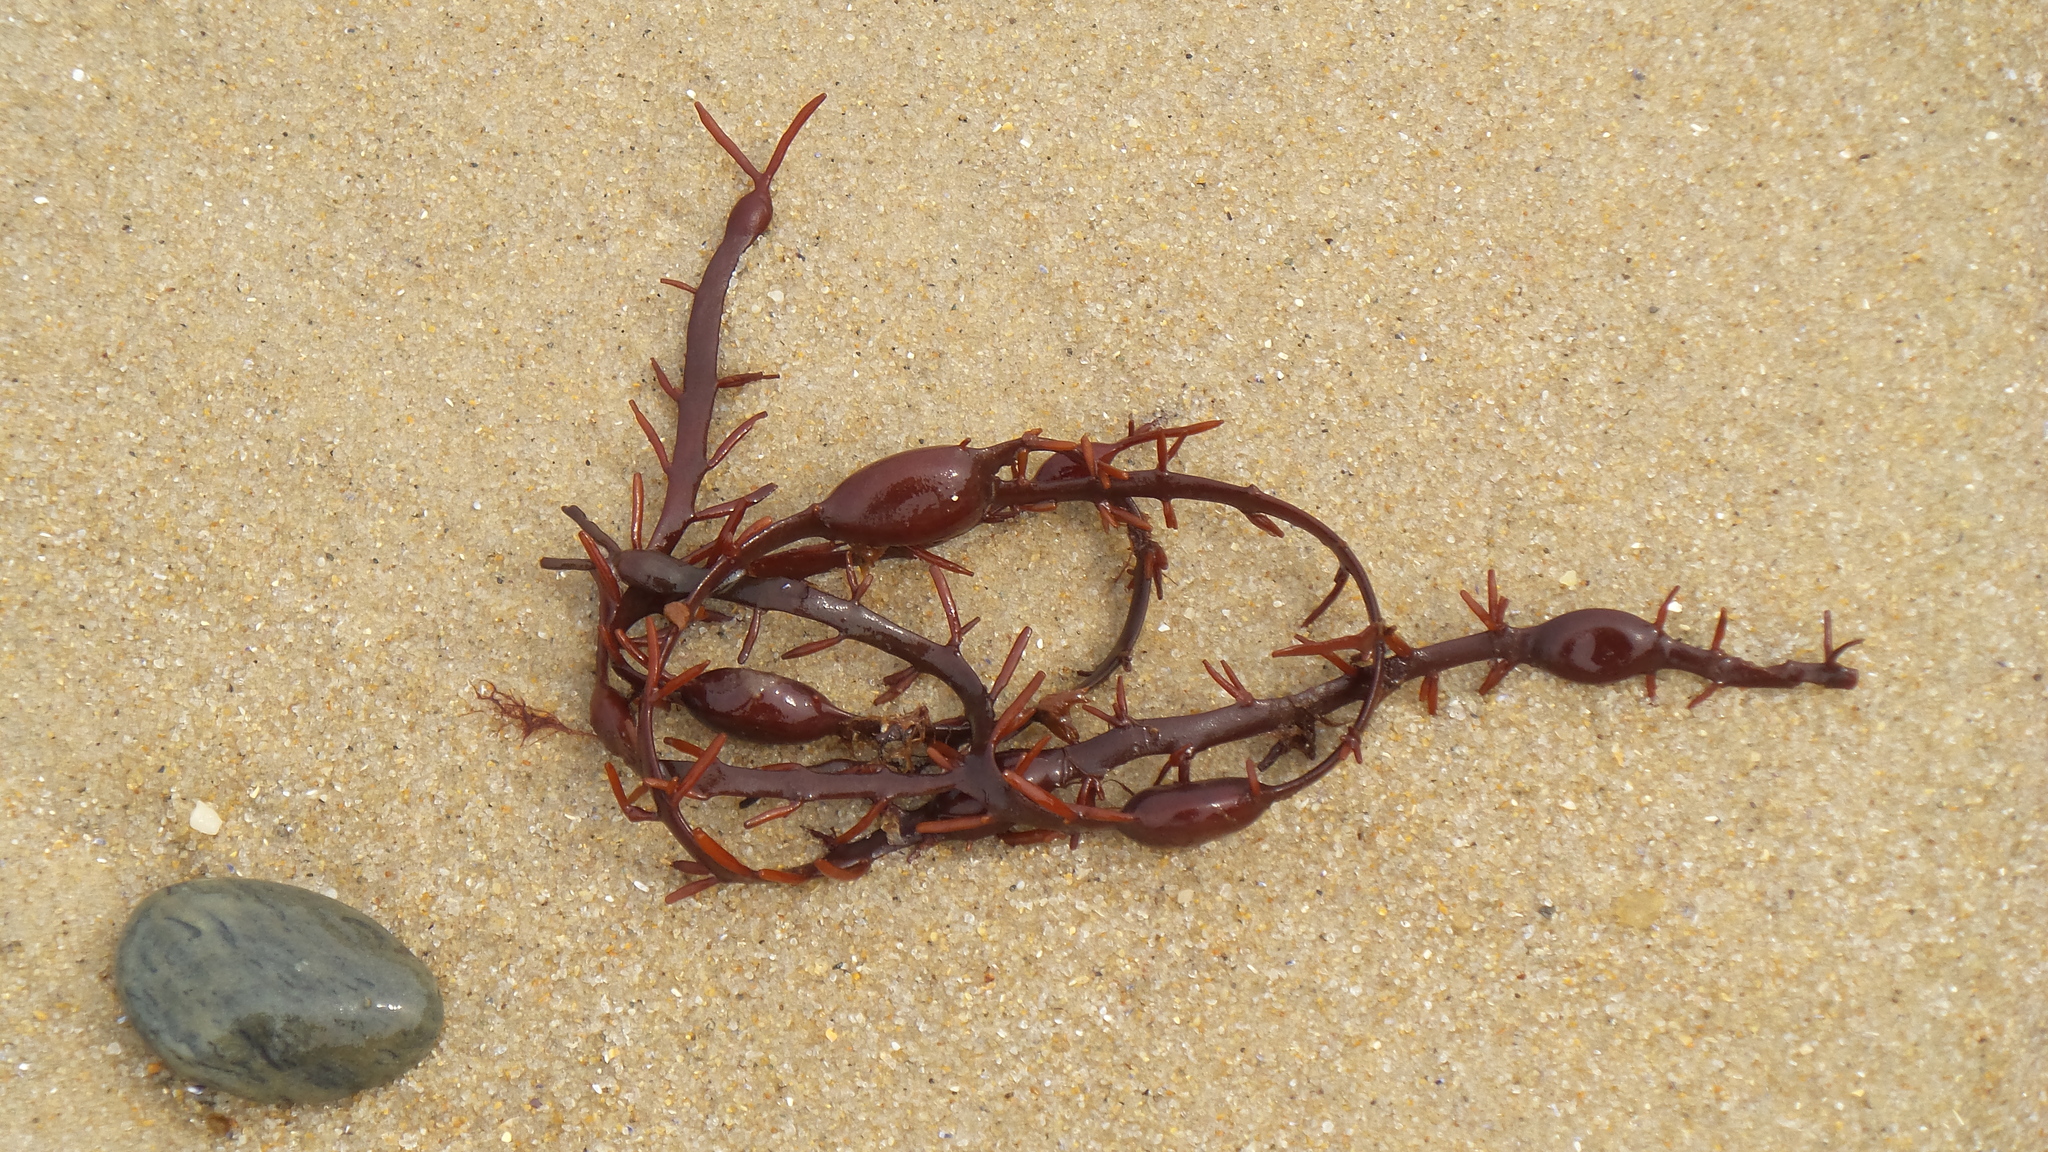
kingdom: Chromista
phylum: Ochrophyta
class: Phaeophyceae
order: Fucales
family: Fucaceae
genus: Ascophyllum
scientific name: Ascophyllum nodosum
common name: Knotted wrack
